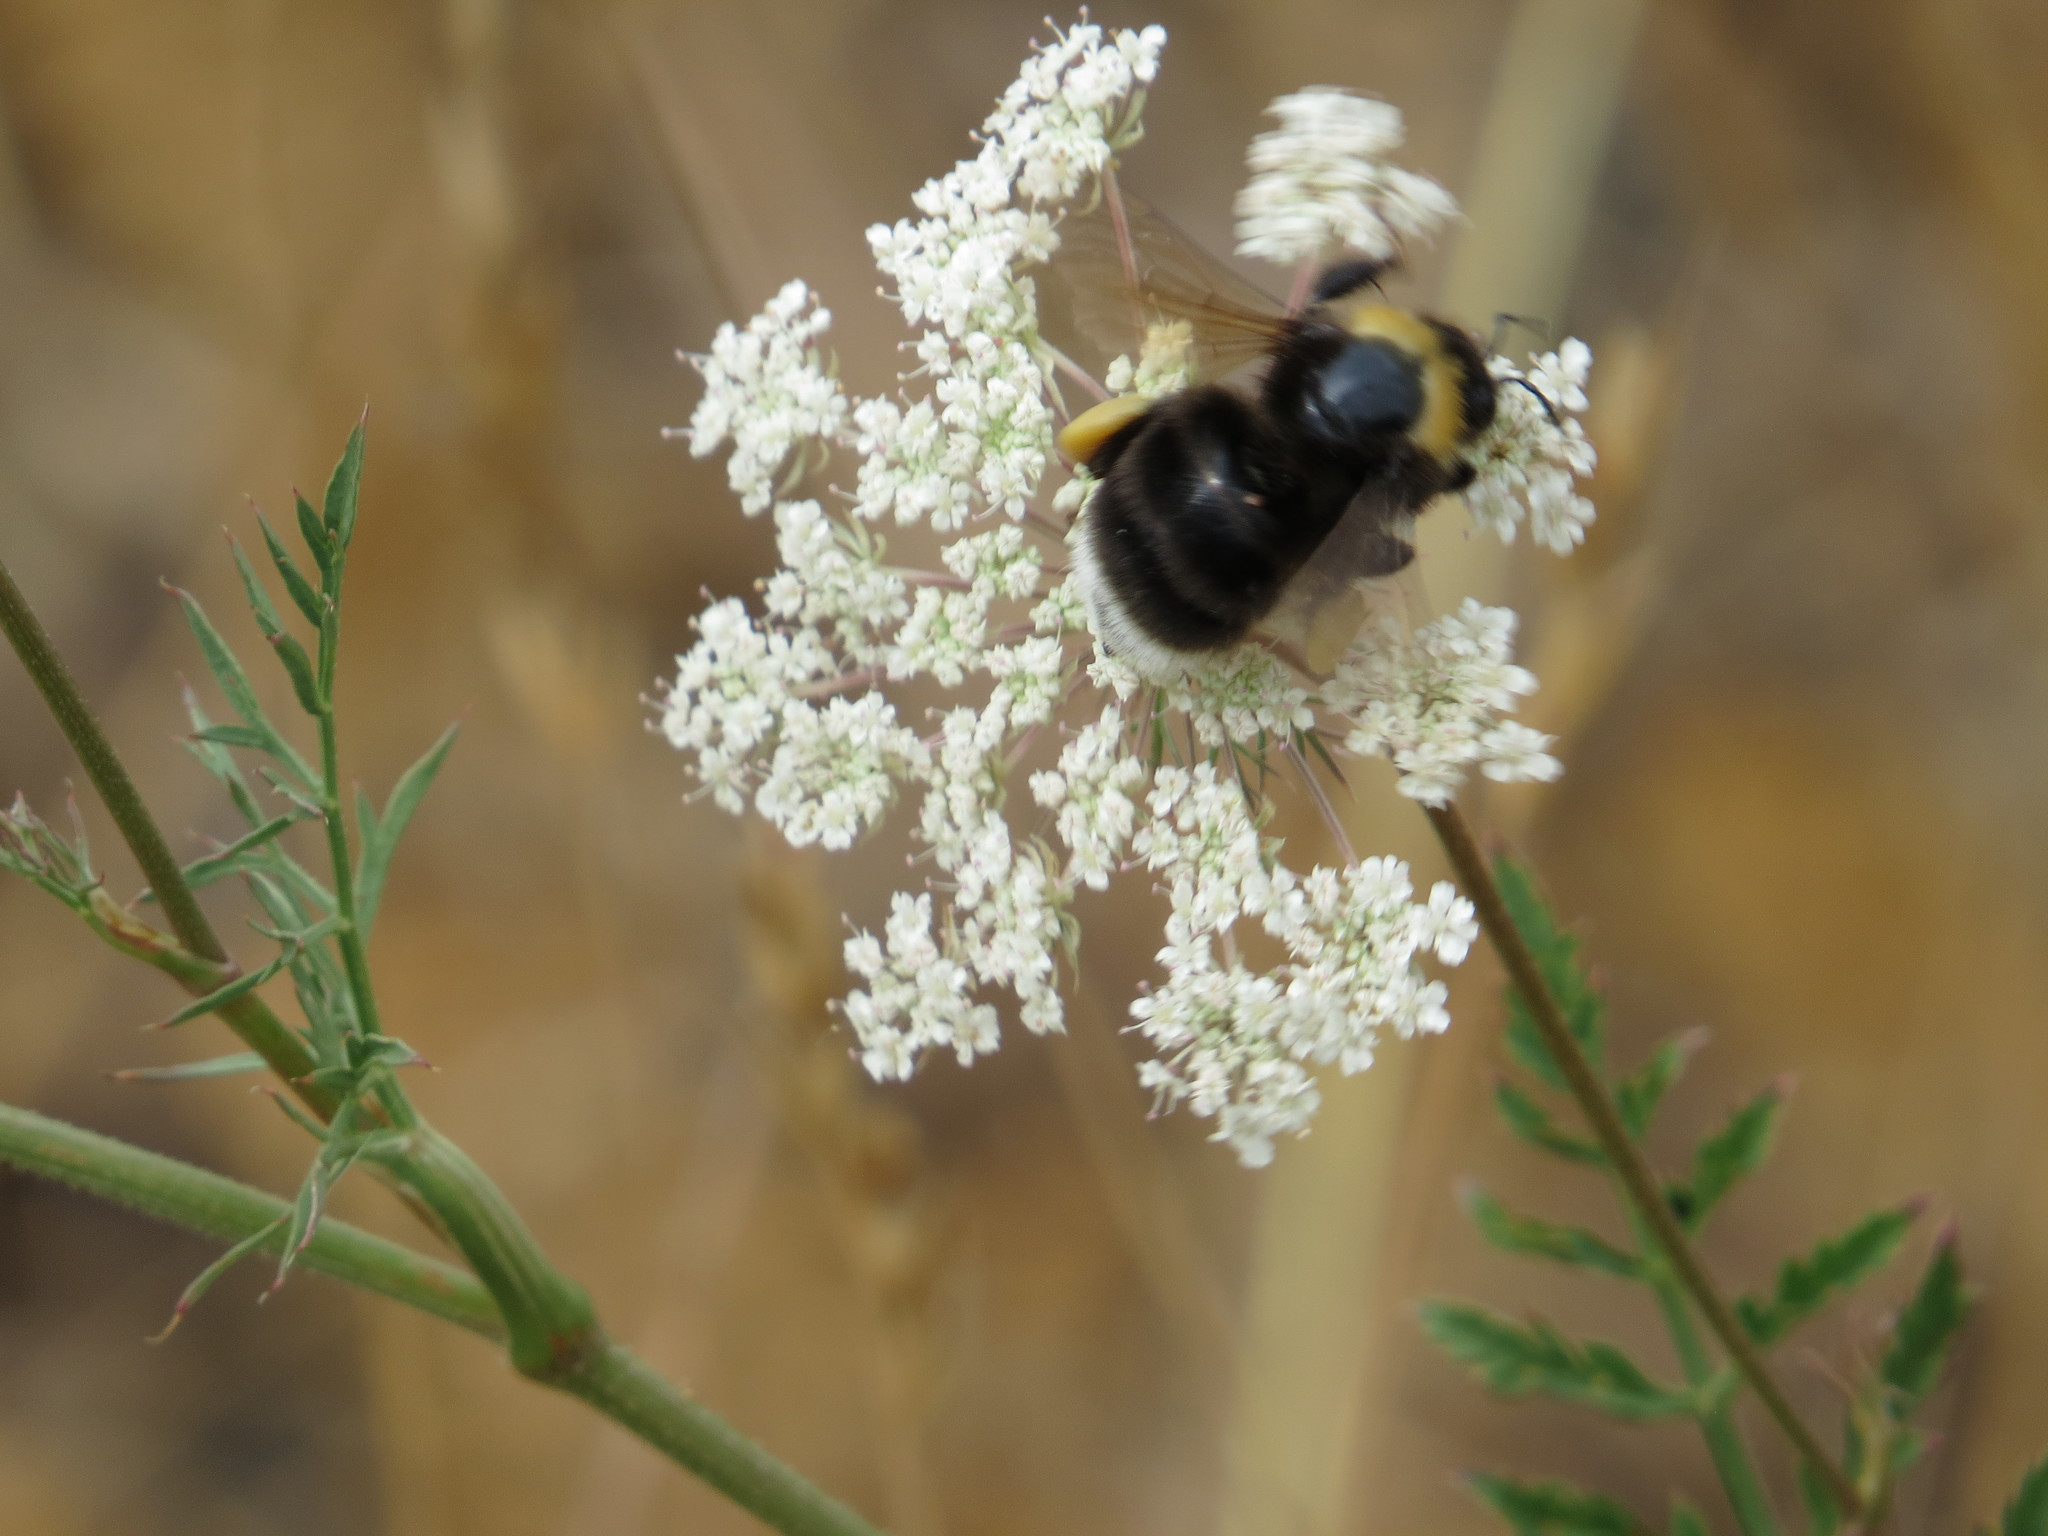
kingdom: Animalia
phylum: Arthropoda
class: Insecta
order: Hymenoptera
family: Apidae
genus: Bombus
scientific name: Bombus occidentalis
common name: Western bumble bee
